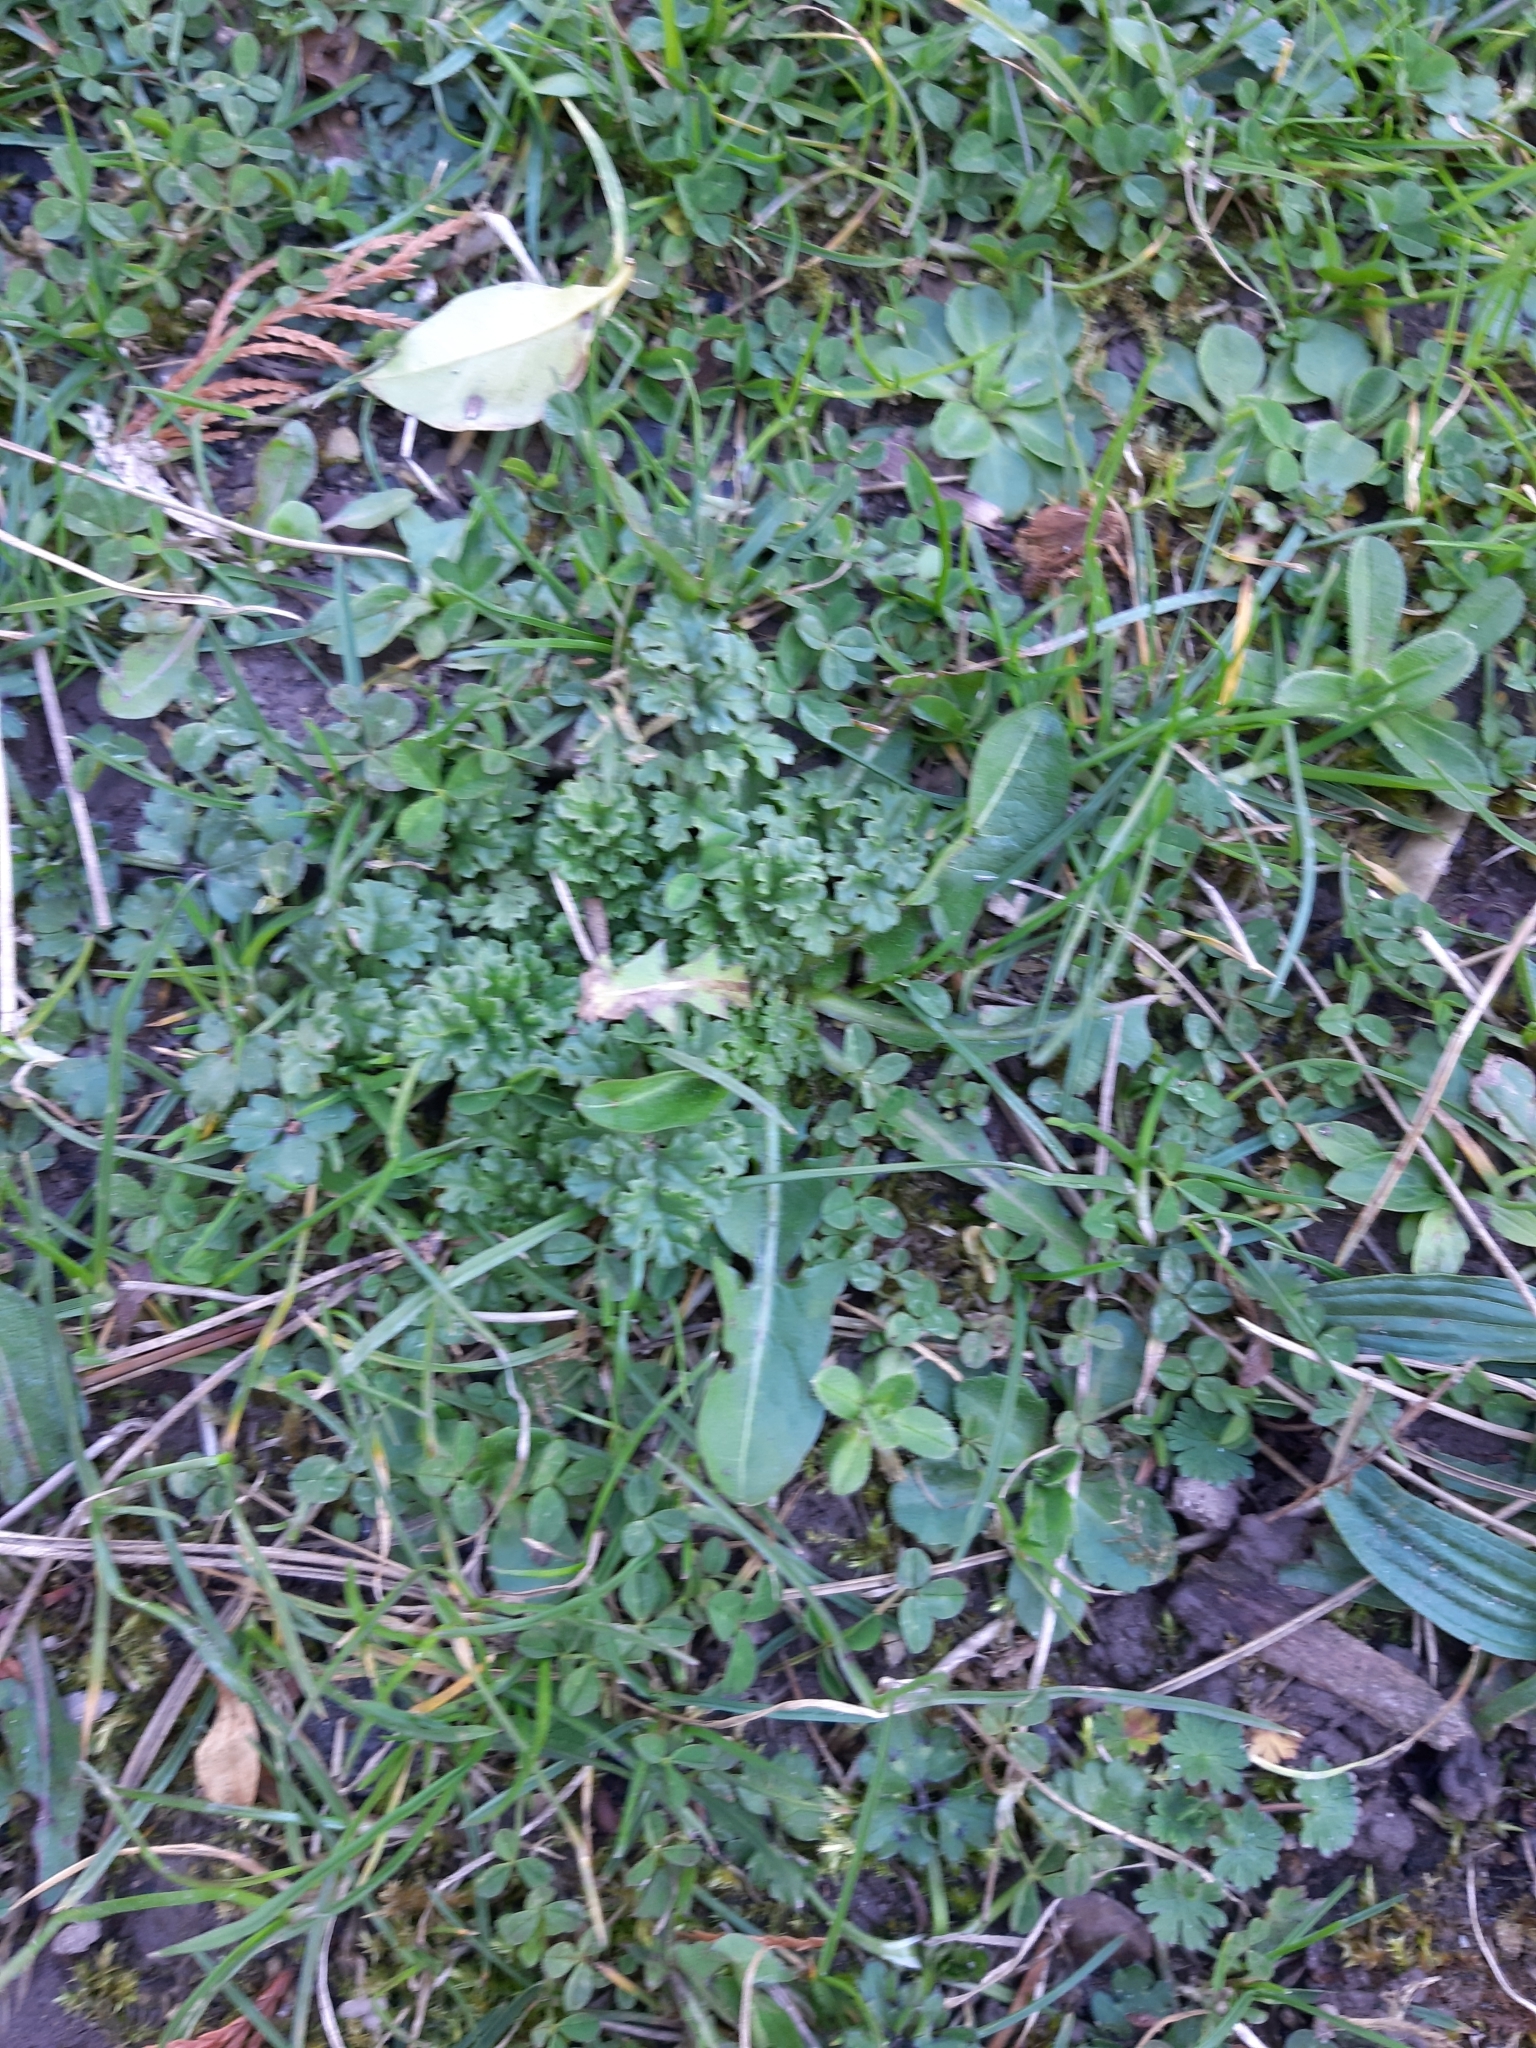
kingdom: Plantae
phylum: Tracheophyta
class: Magnoliopsida
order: Fabales
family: Fabaceae
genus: Trifolium
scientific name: Trifolium repens
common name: White clover
